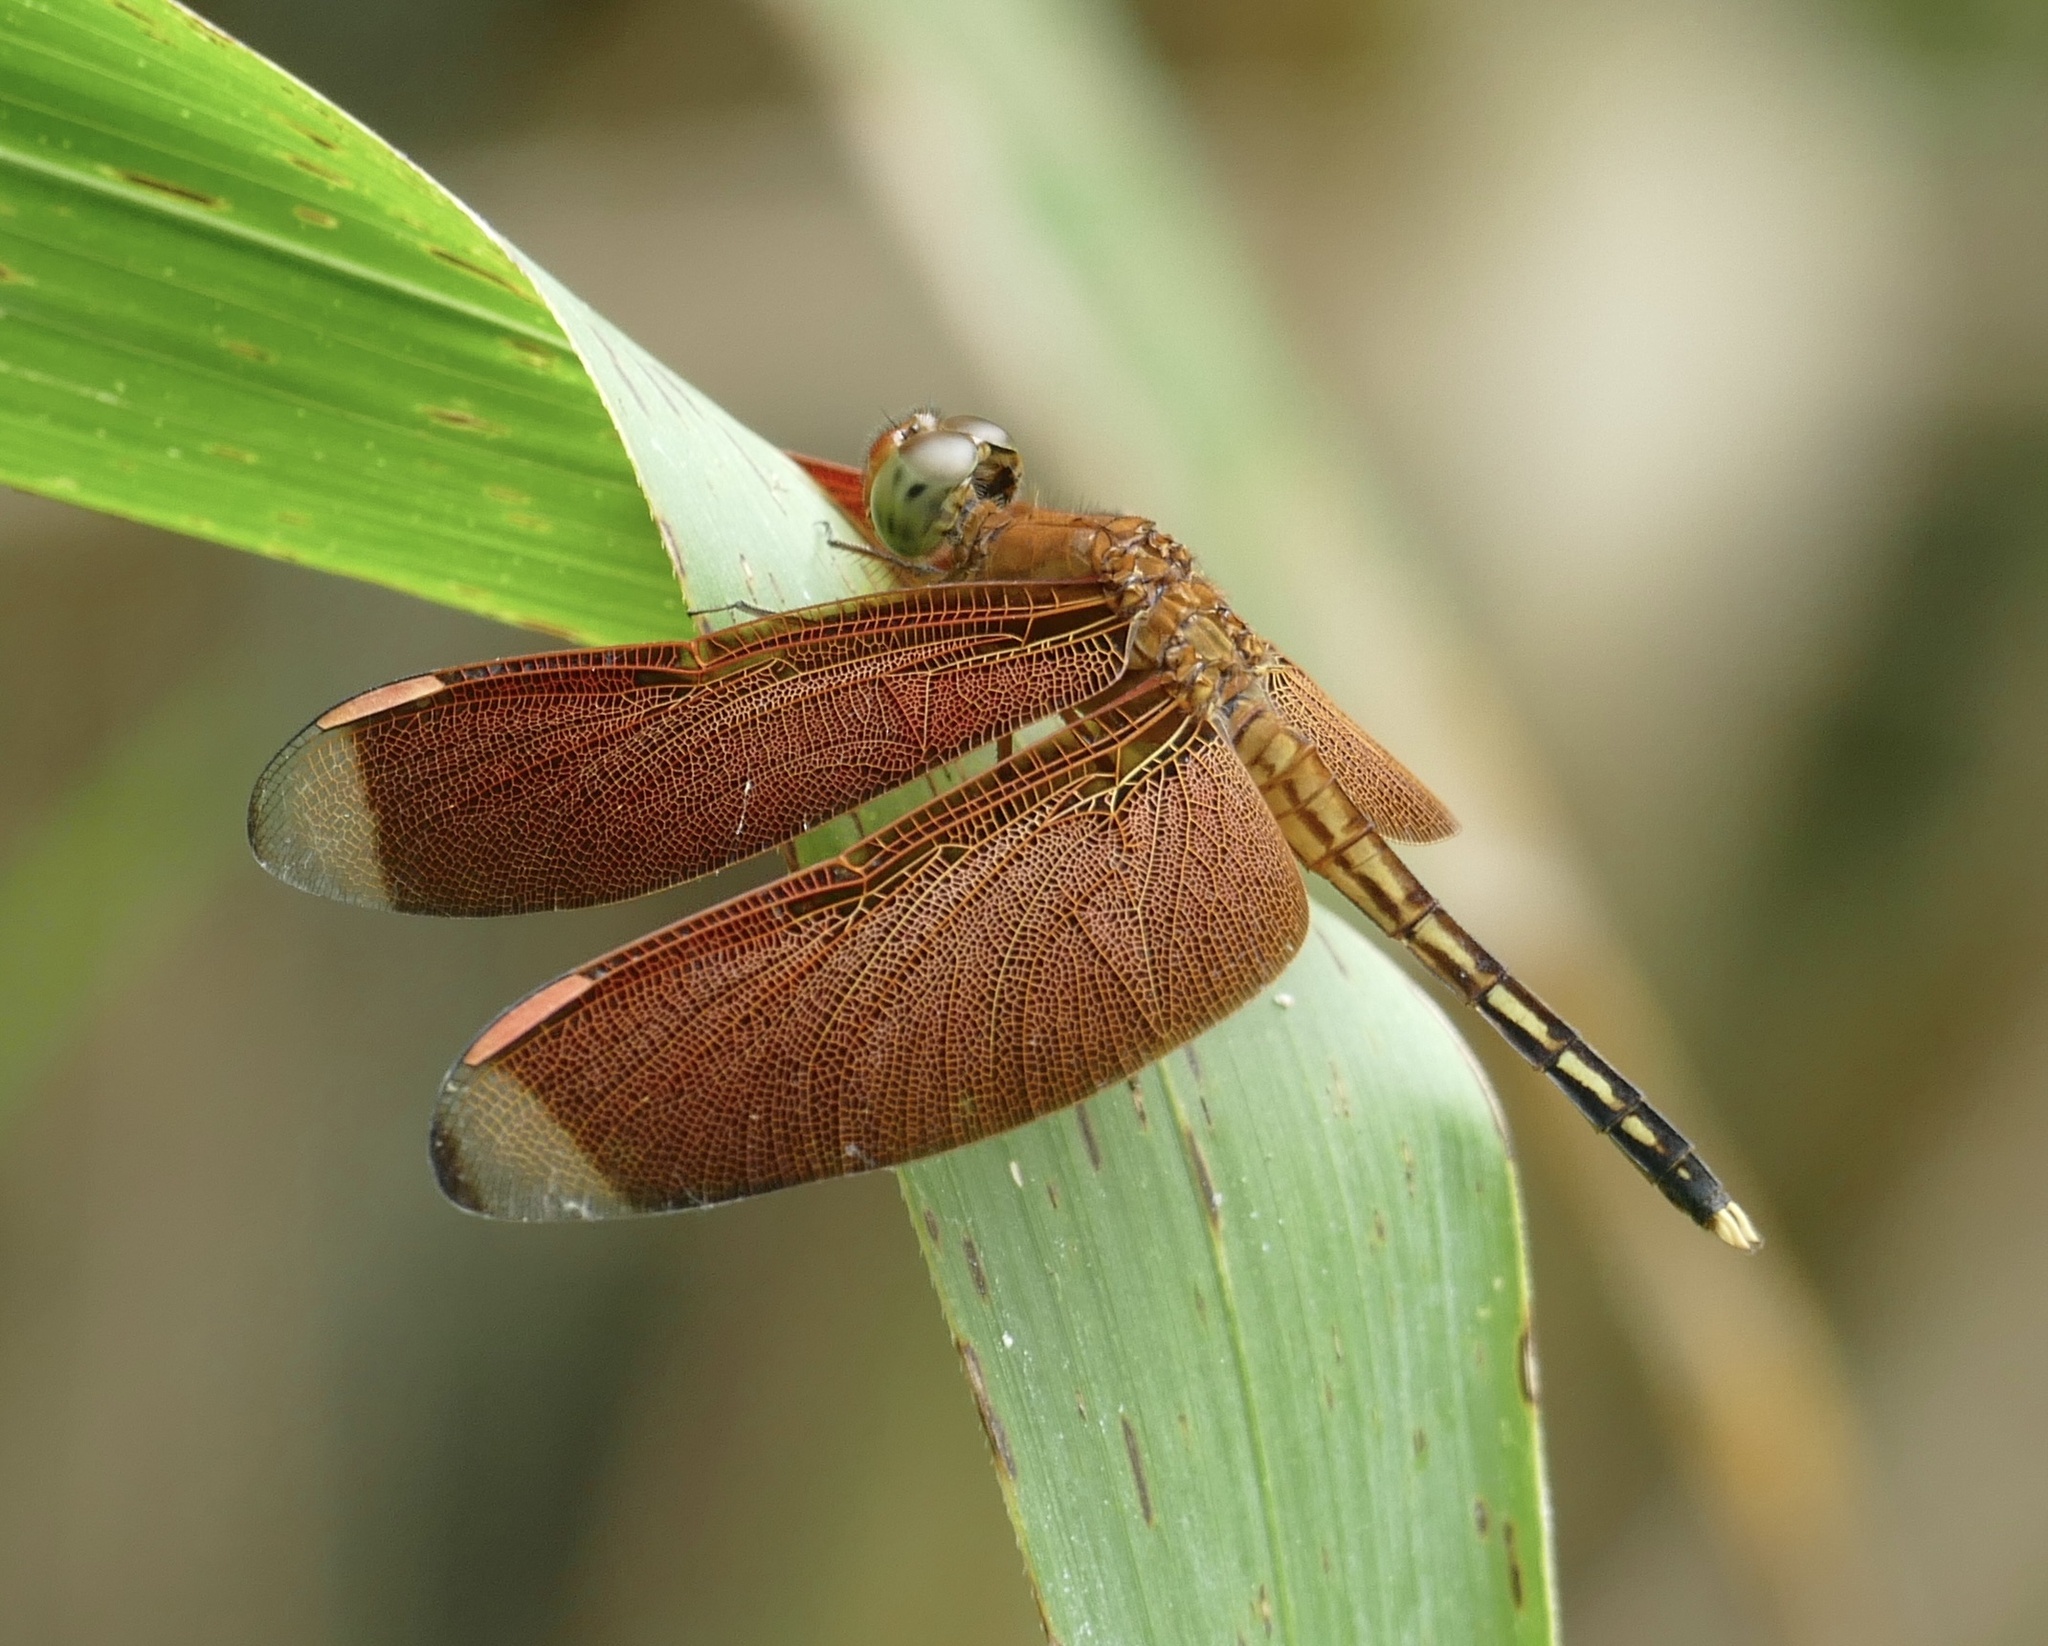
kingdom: Animalia
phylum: Arthropoda
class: Insecta
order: Odonata
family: Libellulidae
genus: Neurothemis
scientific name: Neurothemis manadensis
